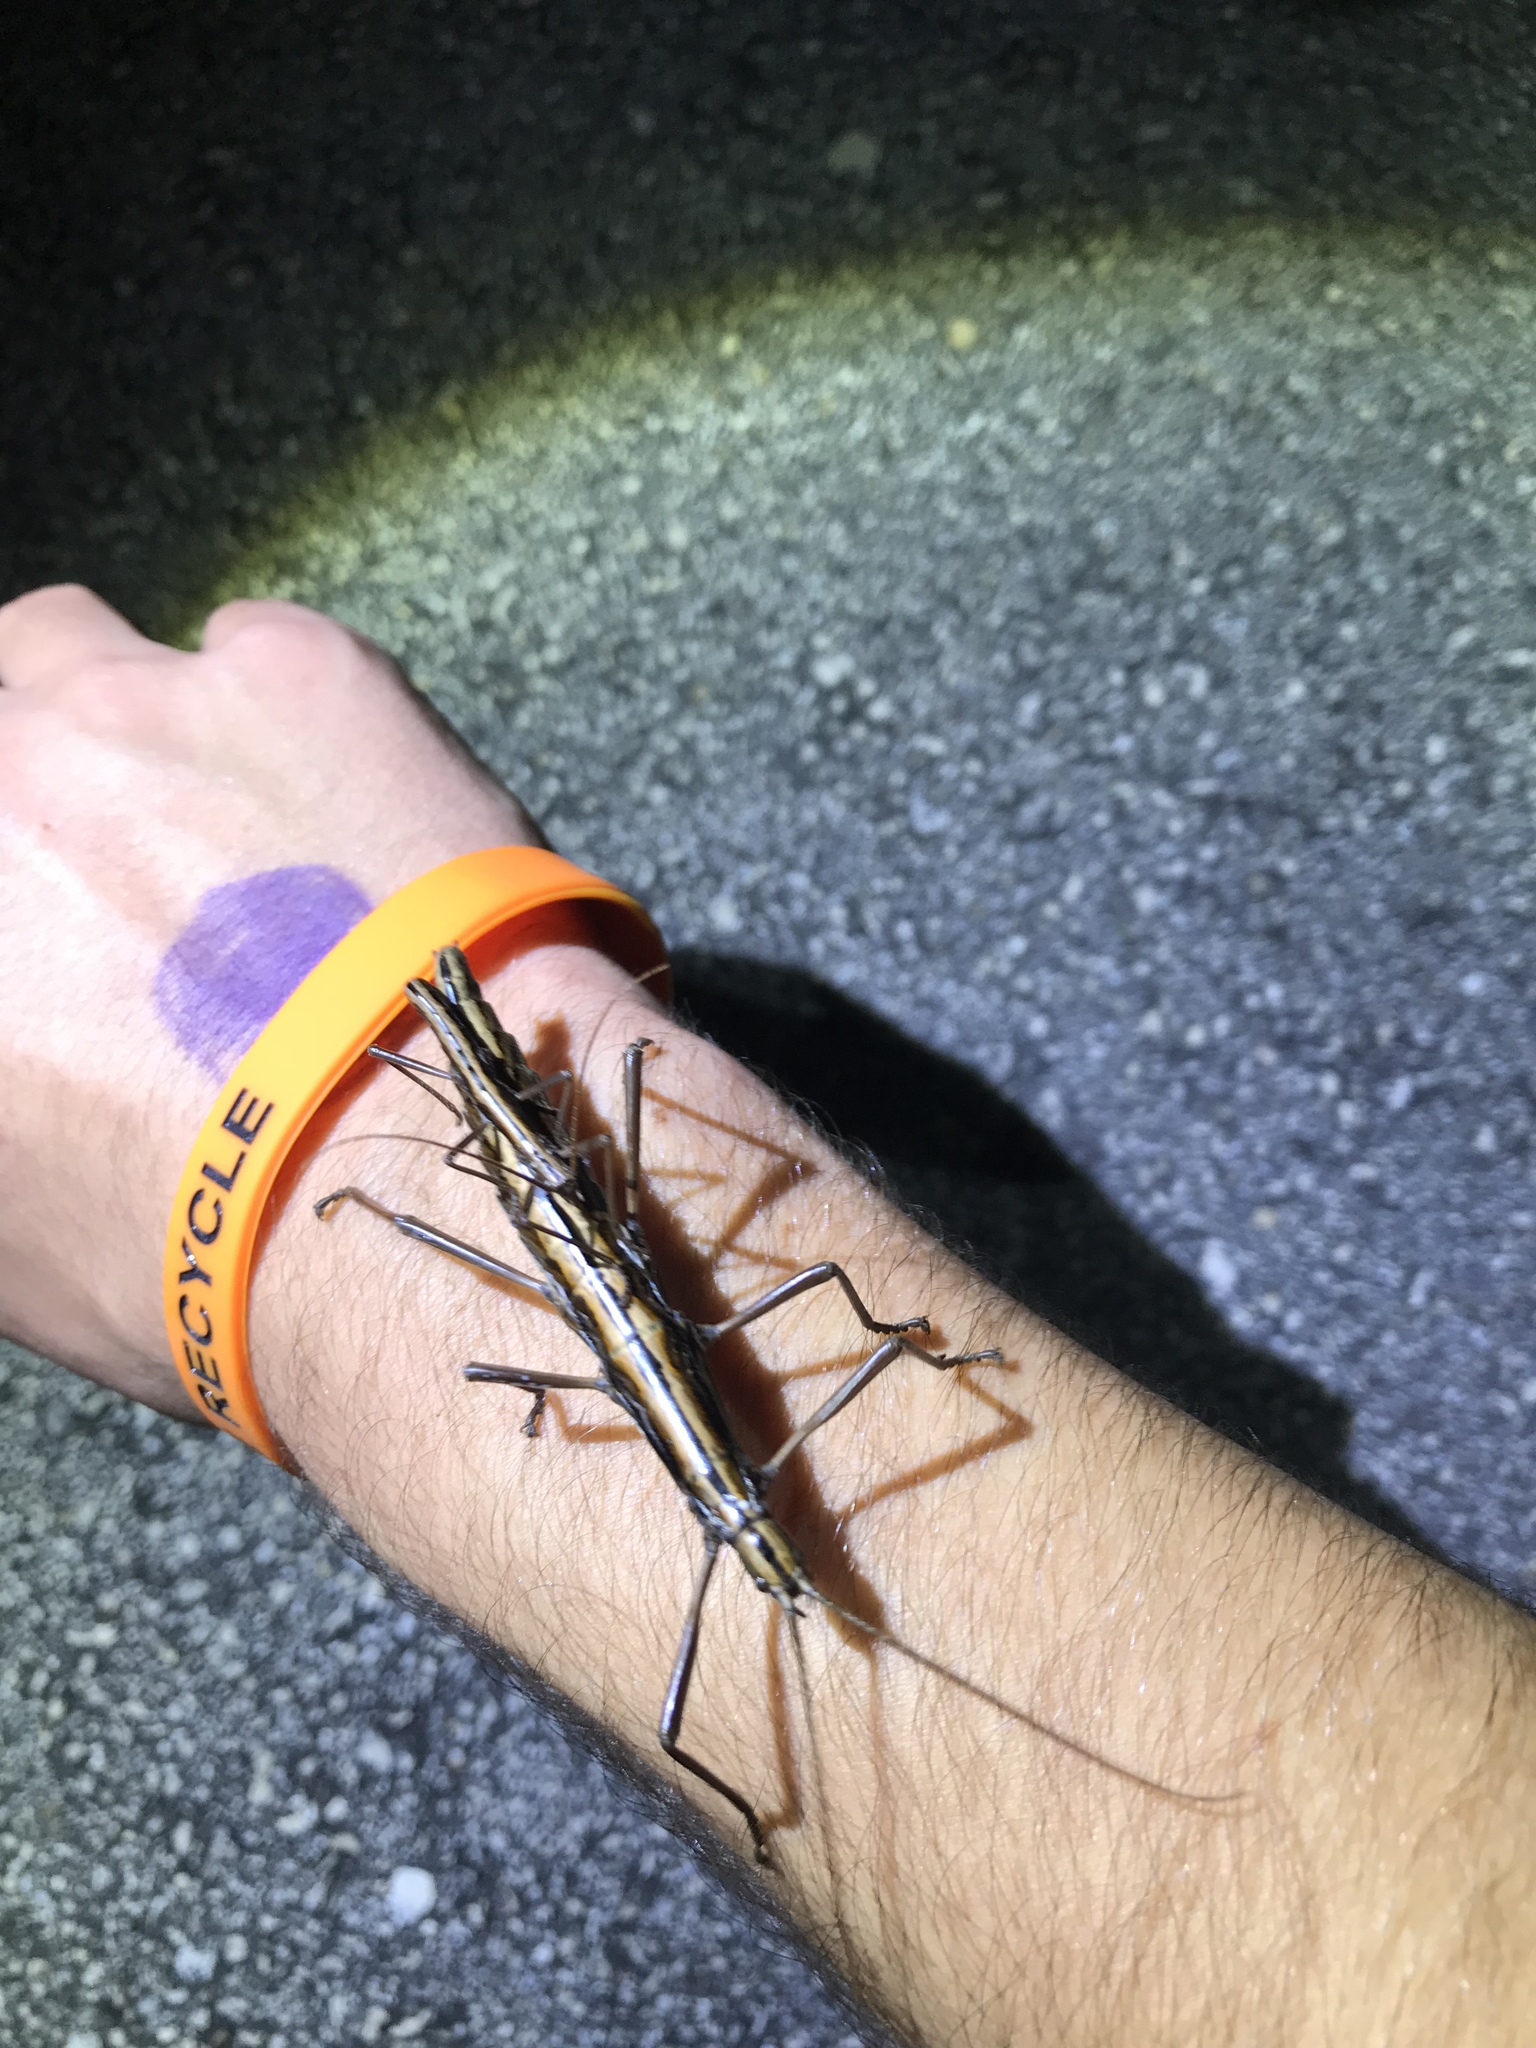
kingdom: Animalia
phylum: Arthropoda
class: Insecta
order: Phasmida
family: Pseudophasmatidae
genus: Anisomorpha
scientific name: Anisomorpha buprestoides
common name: Florida stick insect
